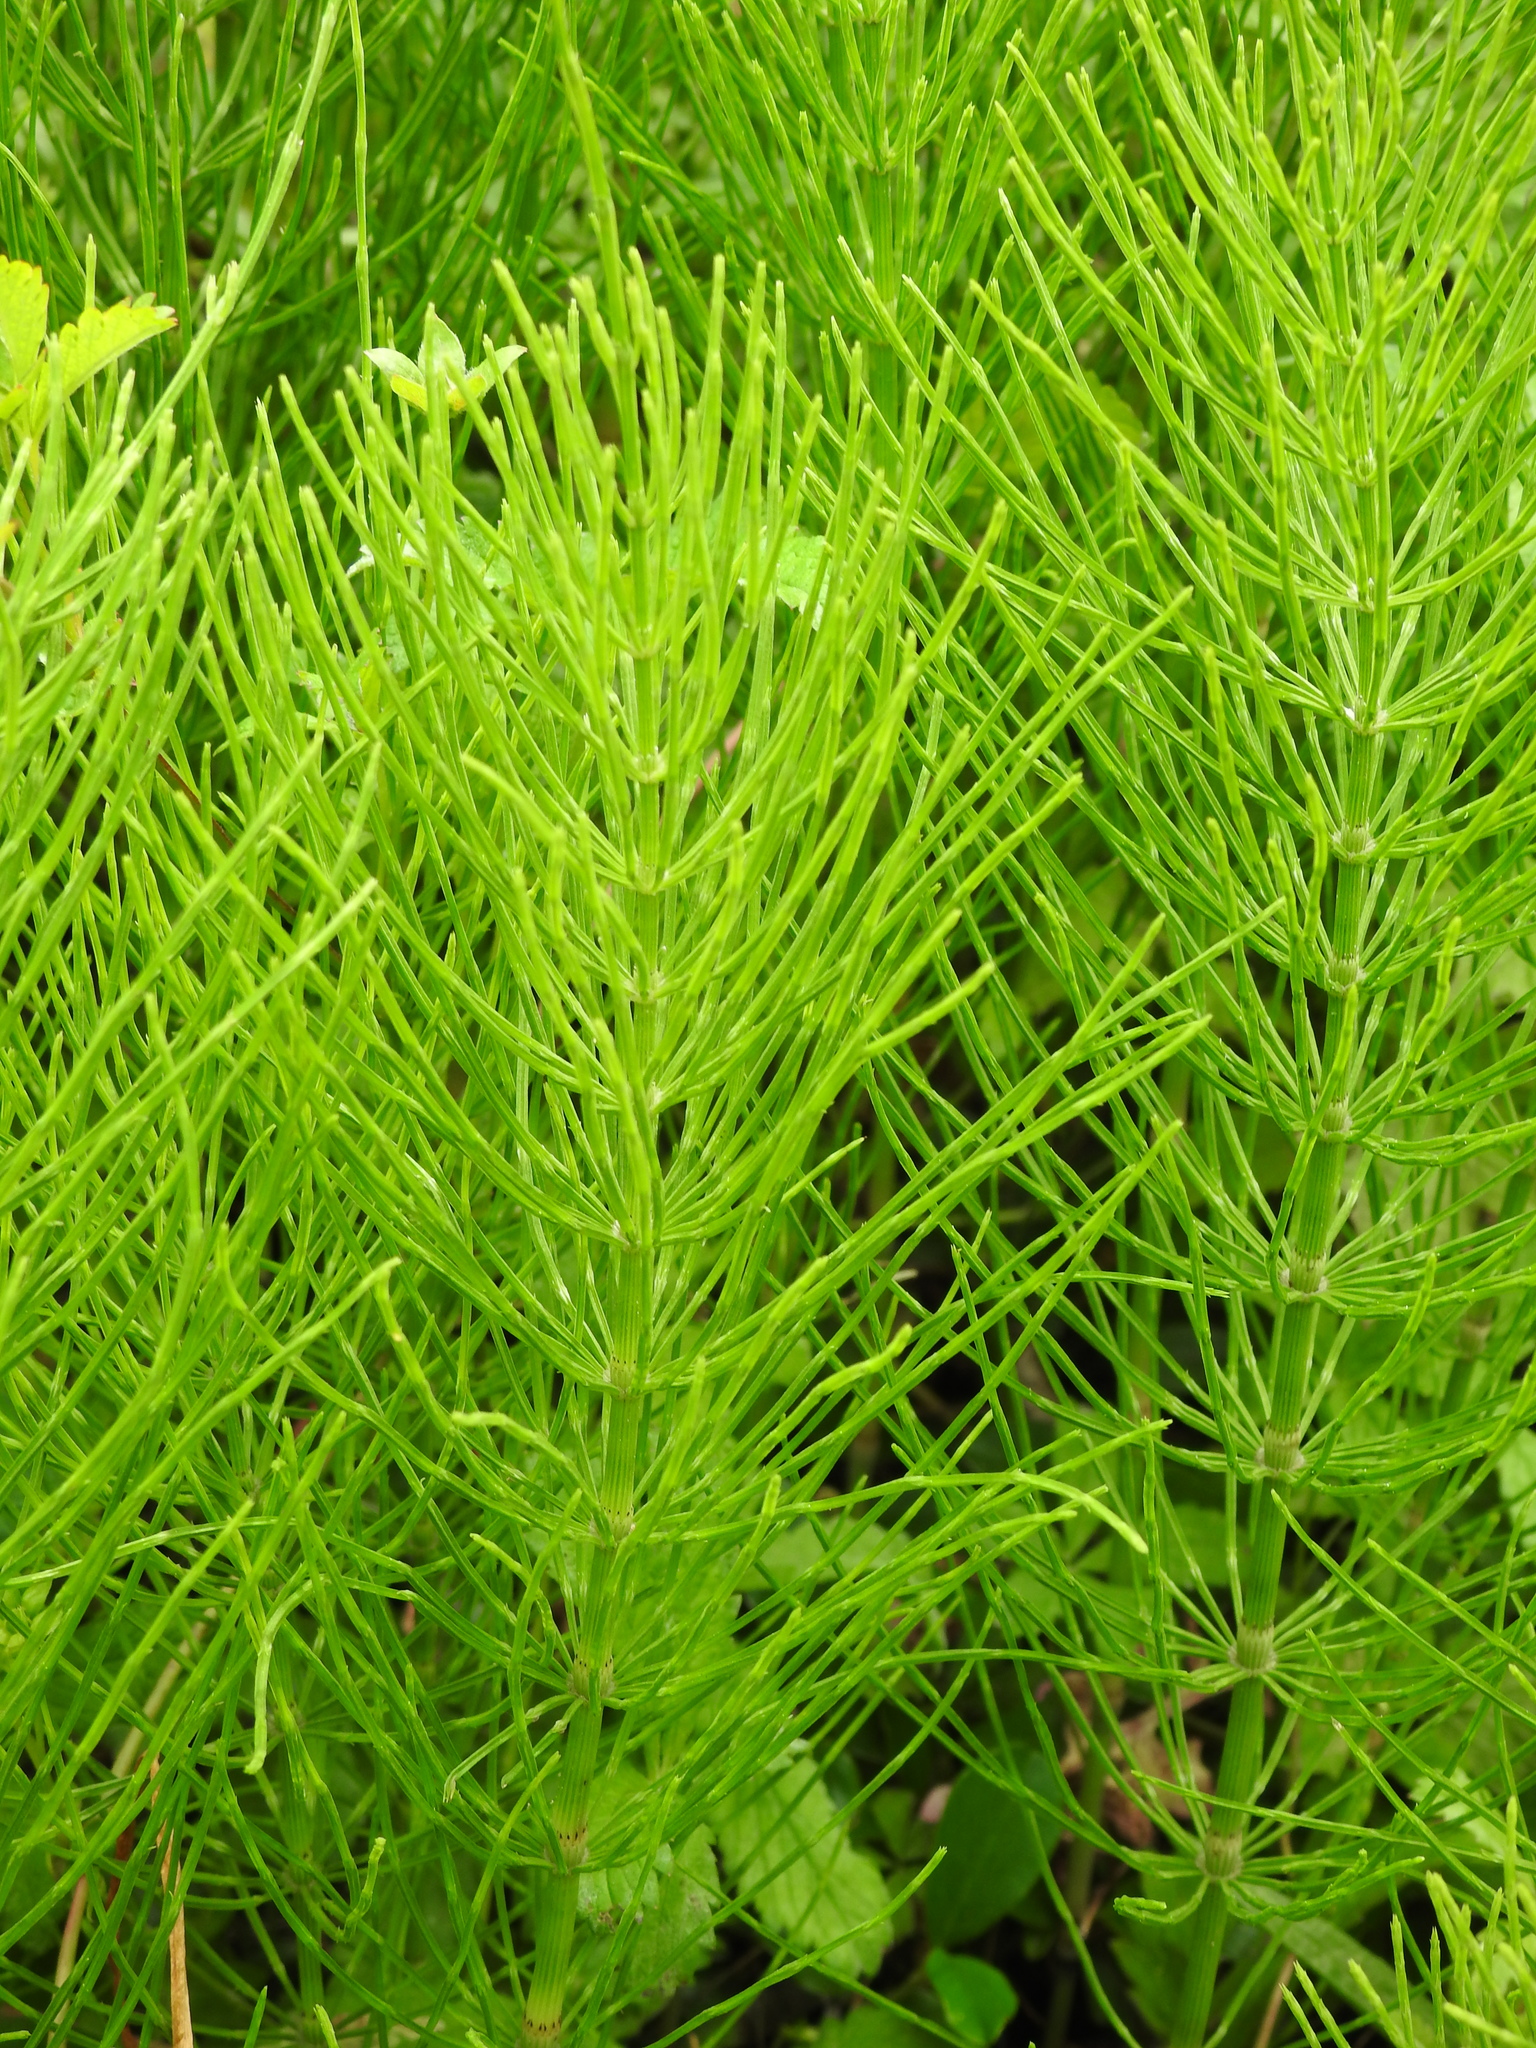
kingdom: Plantae
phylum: Tracheophyta
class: Polypodiopsida
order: Equisetales
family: Equisetaceae
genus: Equisetum
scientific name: Equisetum arvense
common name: Field horsetail
